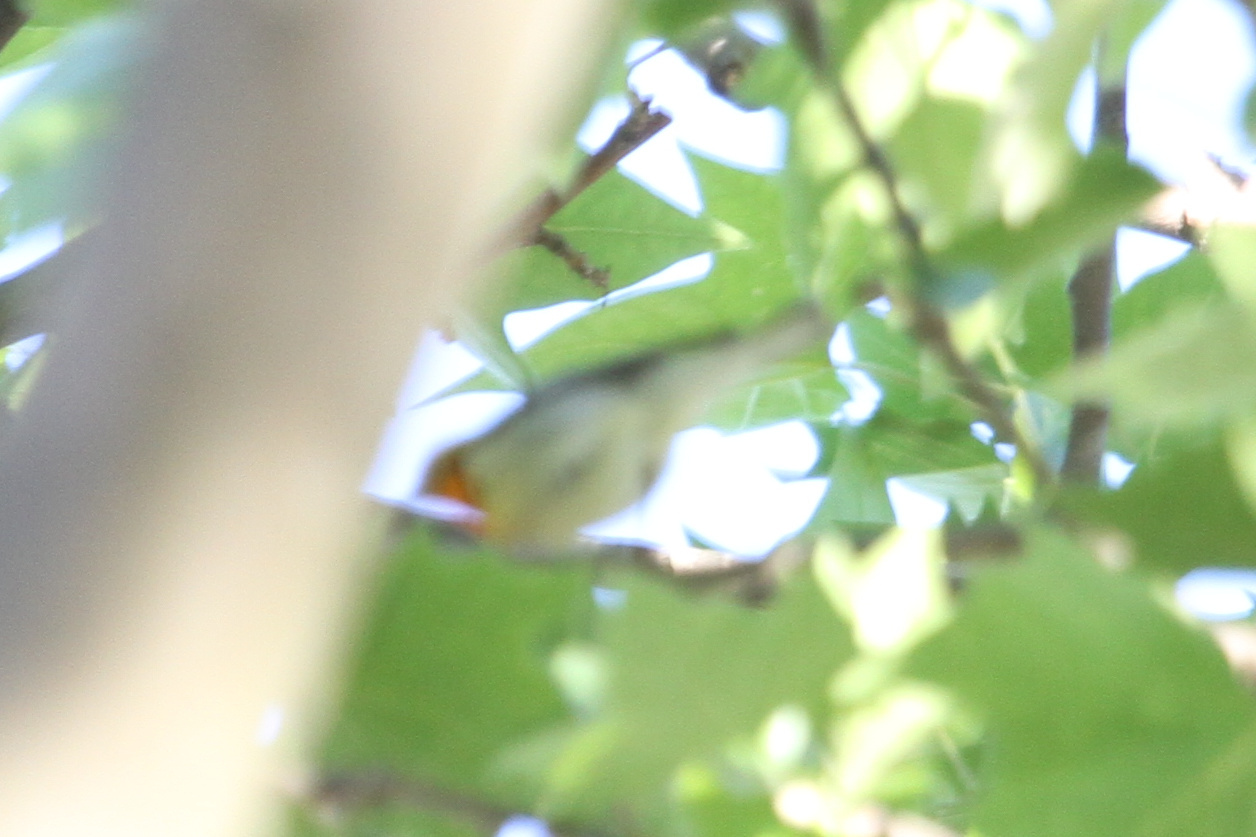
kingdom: Animalia
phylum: Chordata
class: Aves
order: Passeriformes
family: Parulidae
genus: Setophaga
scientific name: Setophaga fusca
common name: Blackburnian warbler
